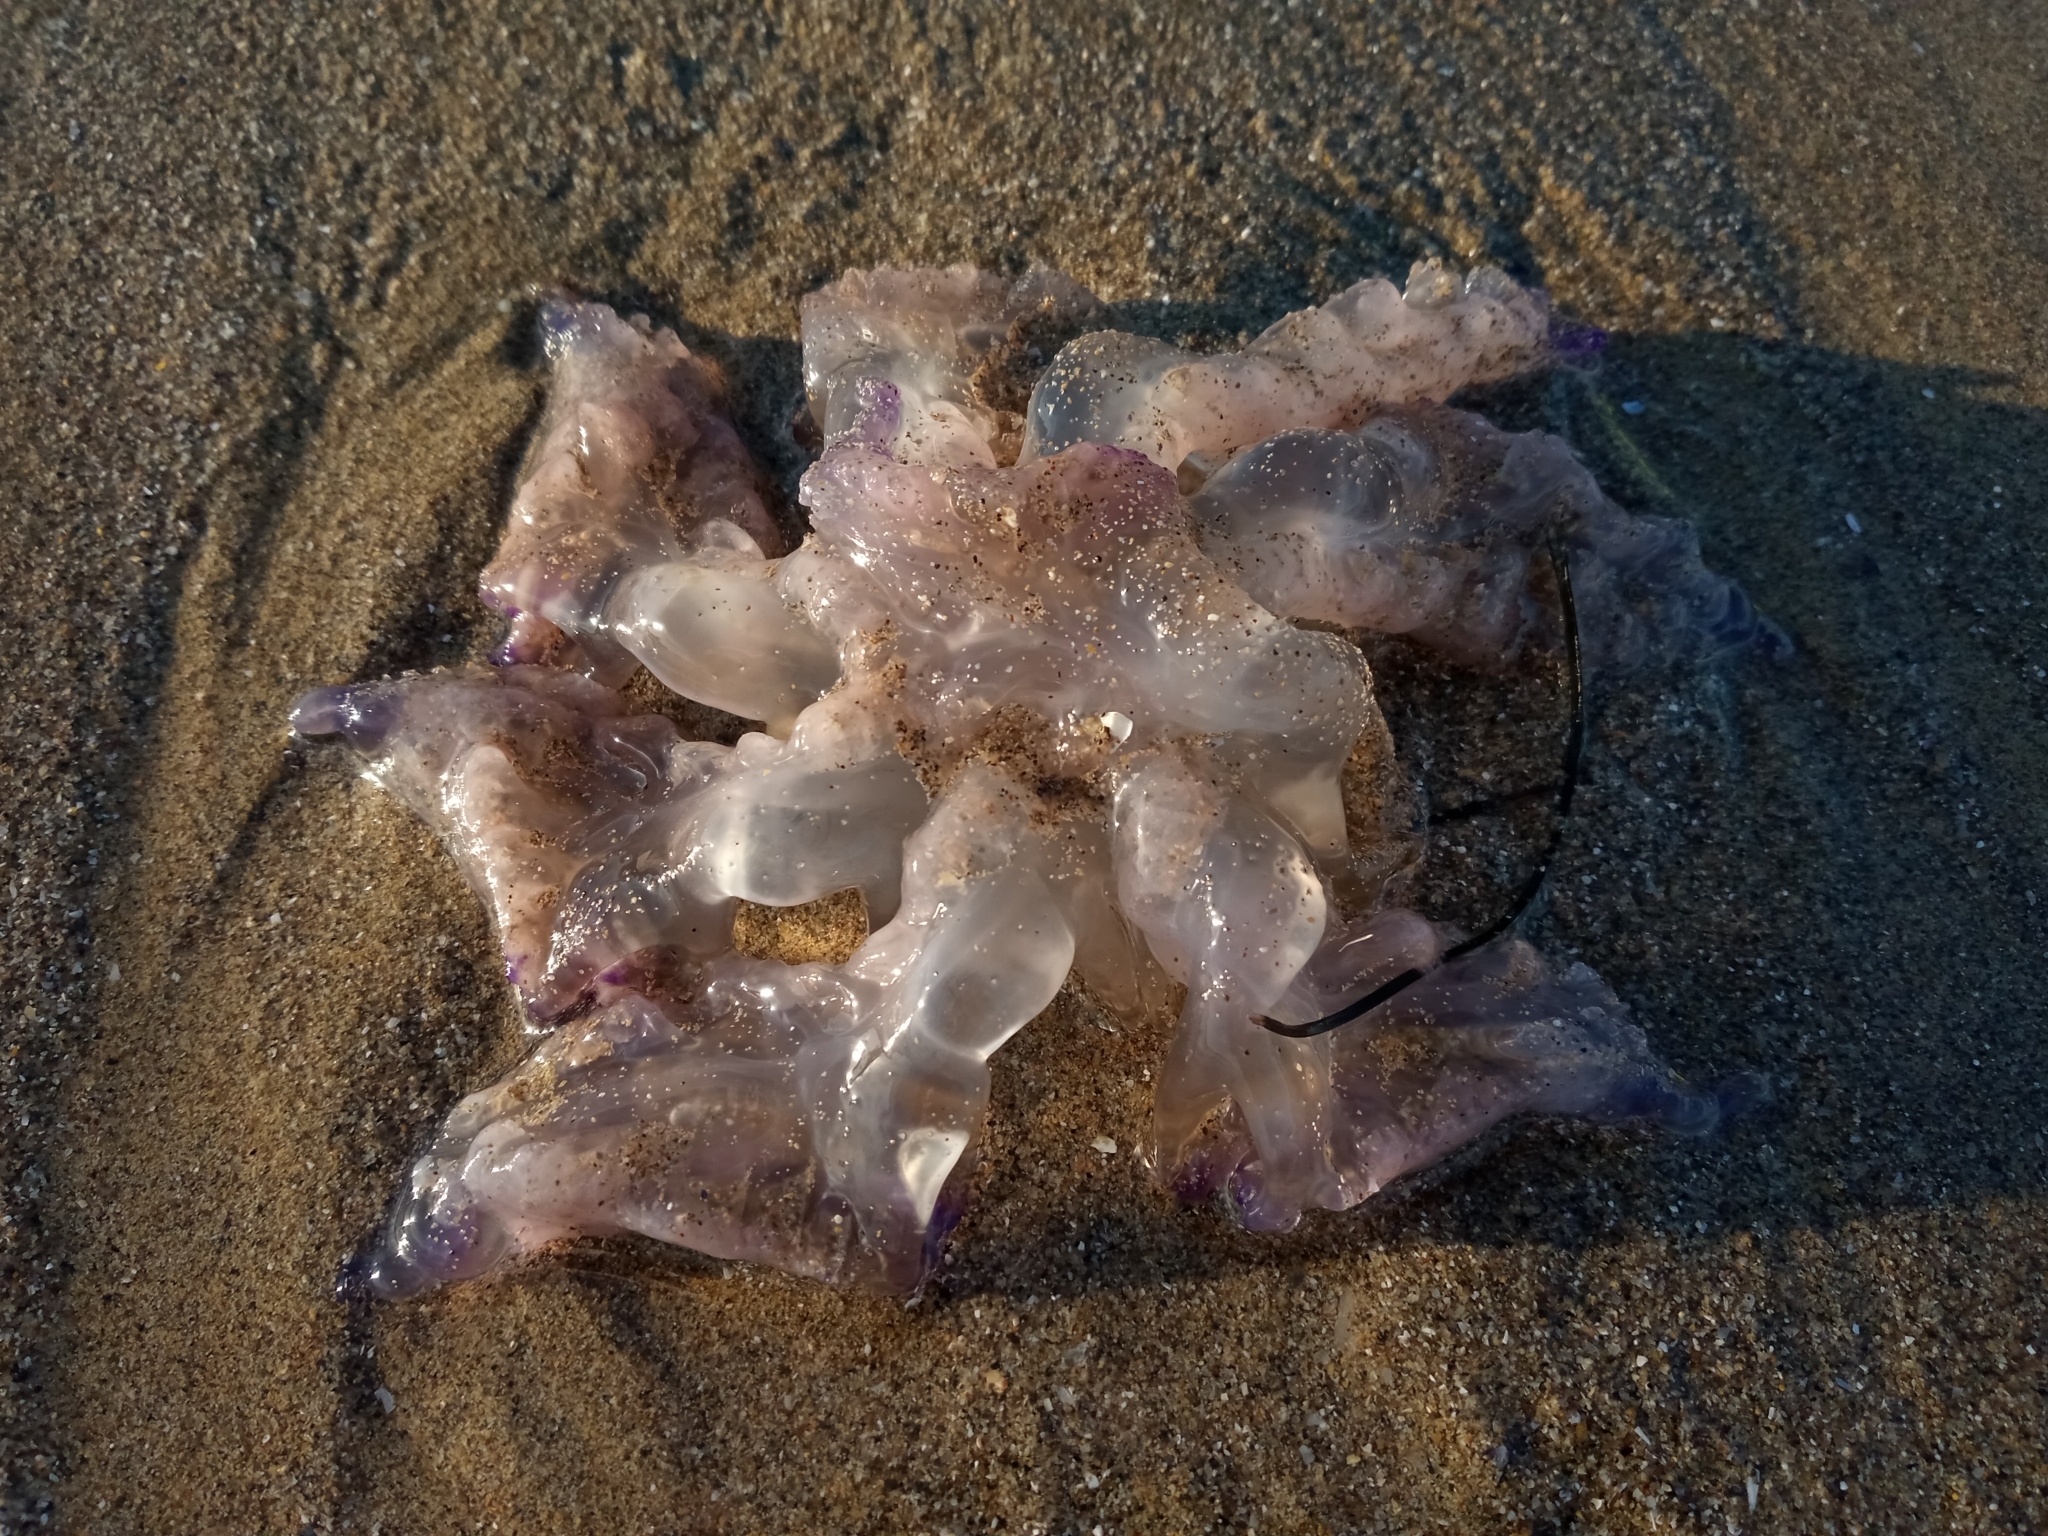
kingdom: Animalia
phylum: Cnidaria
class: Scyphozoa
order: Rhizostomeae
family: Rhizostomatidae
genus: Rhizostoma
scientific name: Rhizostoma pulmo
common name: Barrel jellyfish
